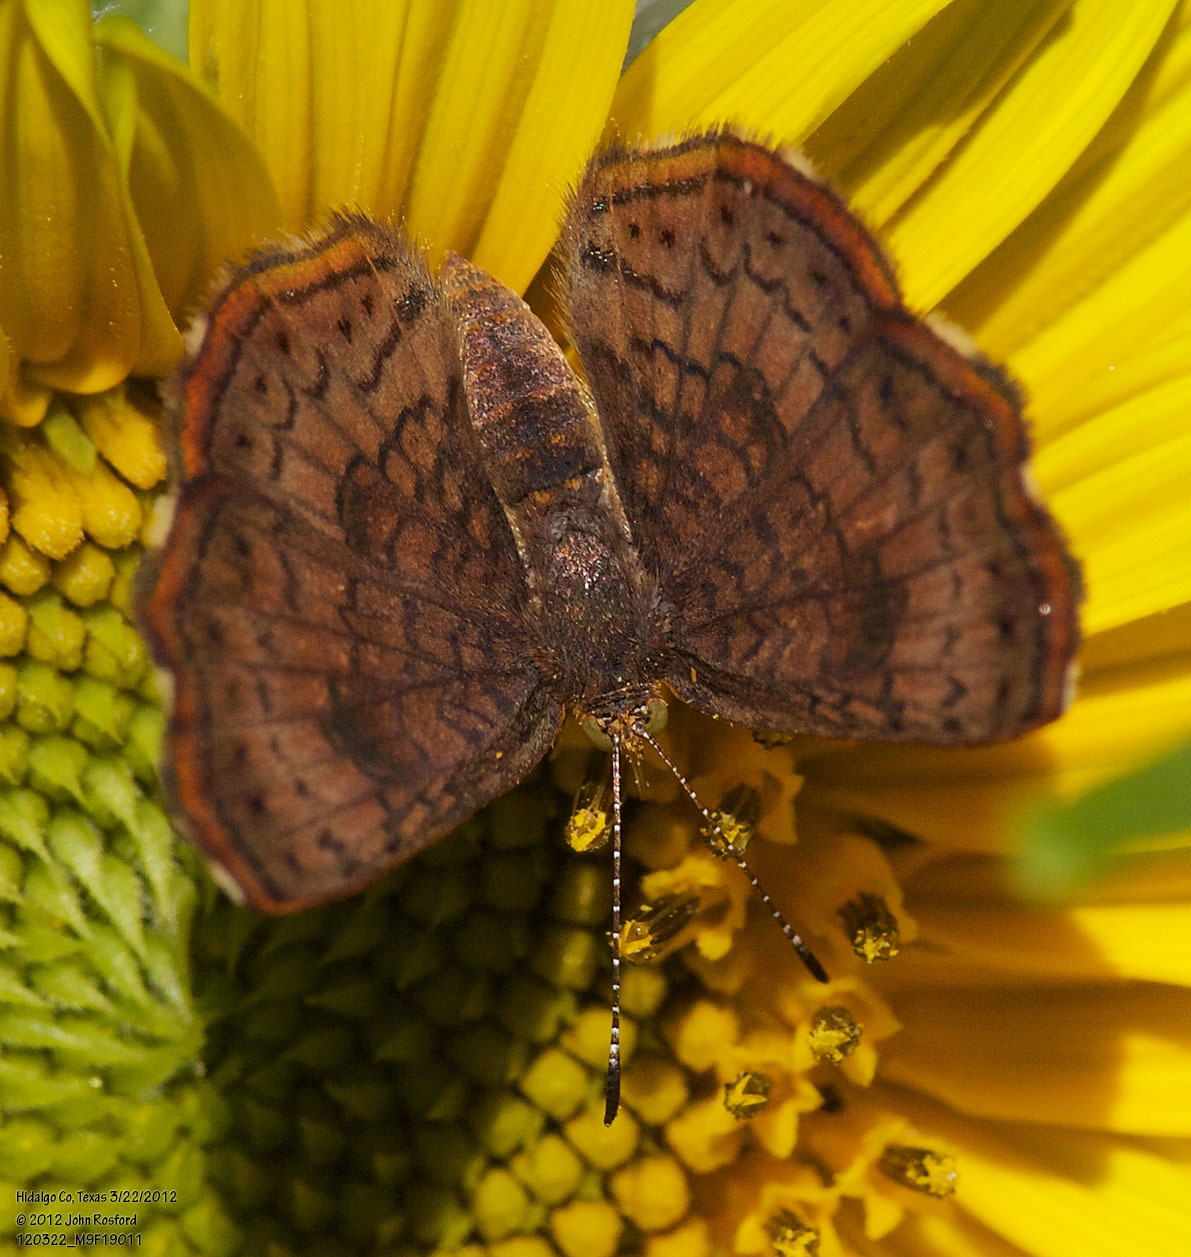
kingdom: Animalia
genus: Calephelis
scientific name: Calephelis nemesis
